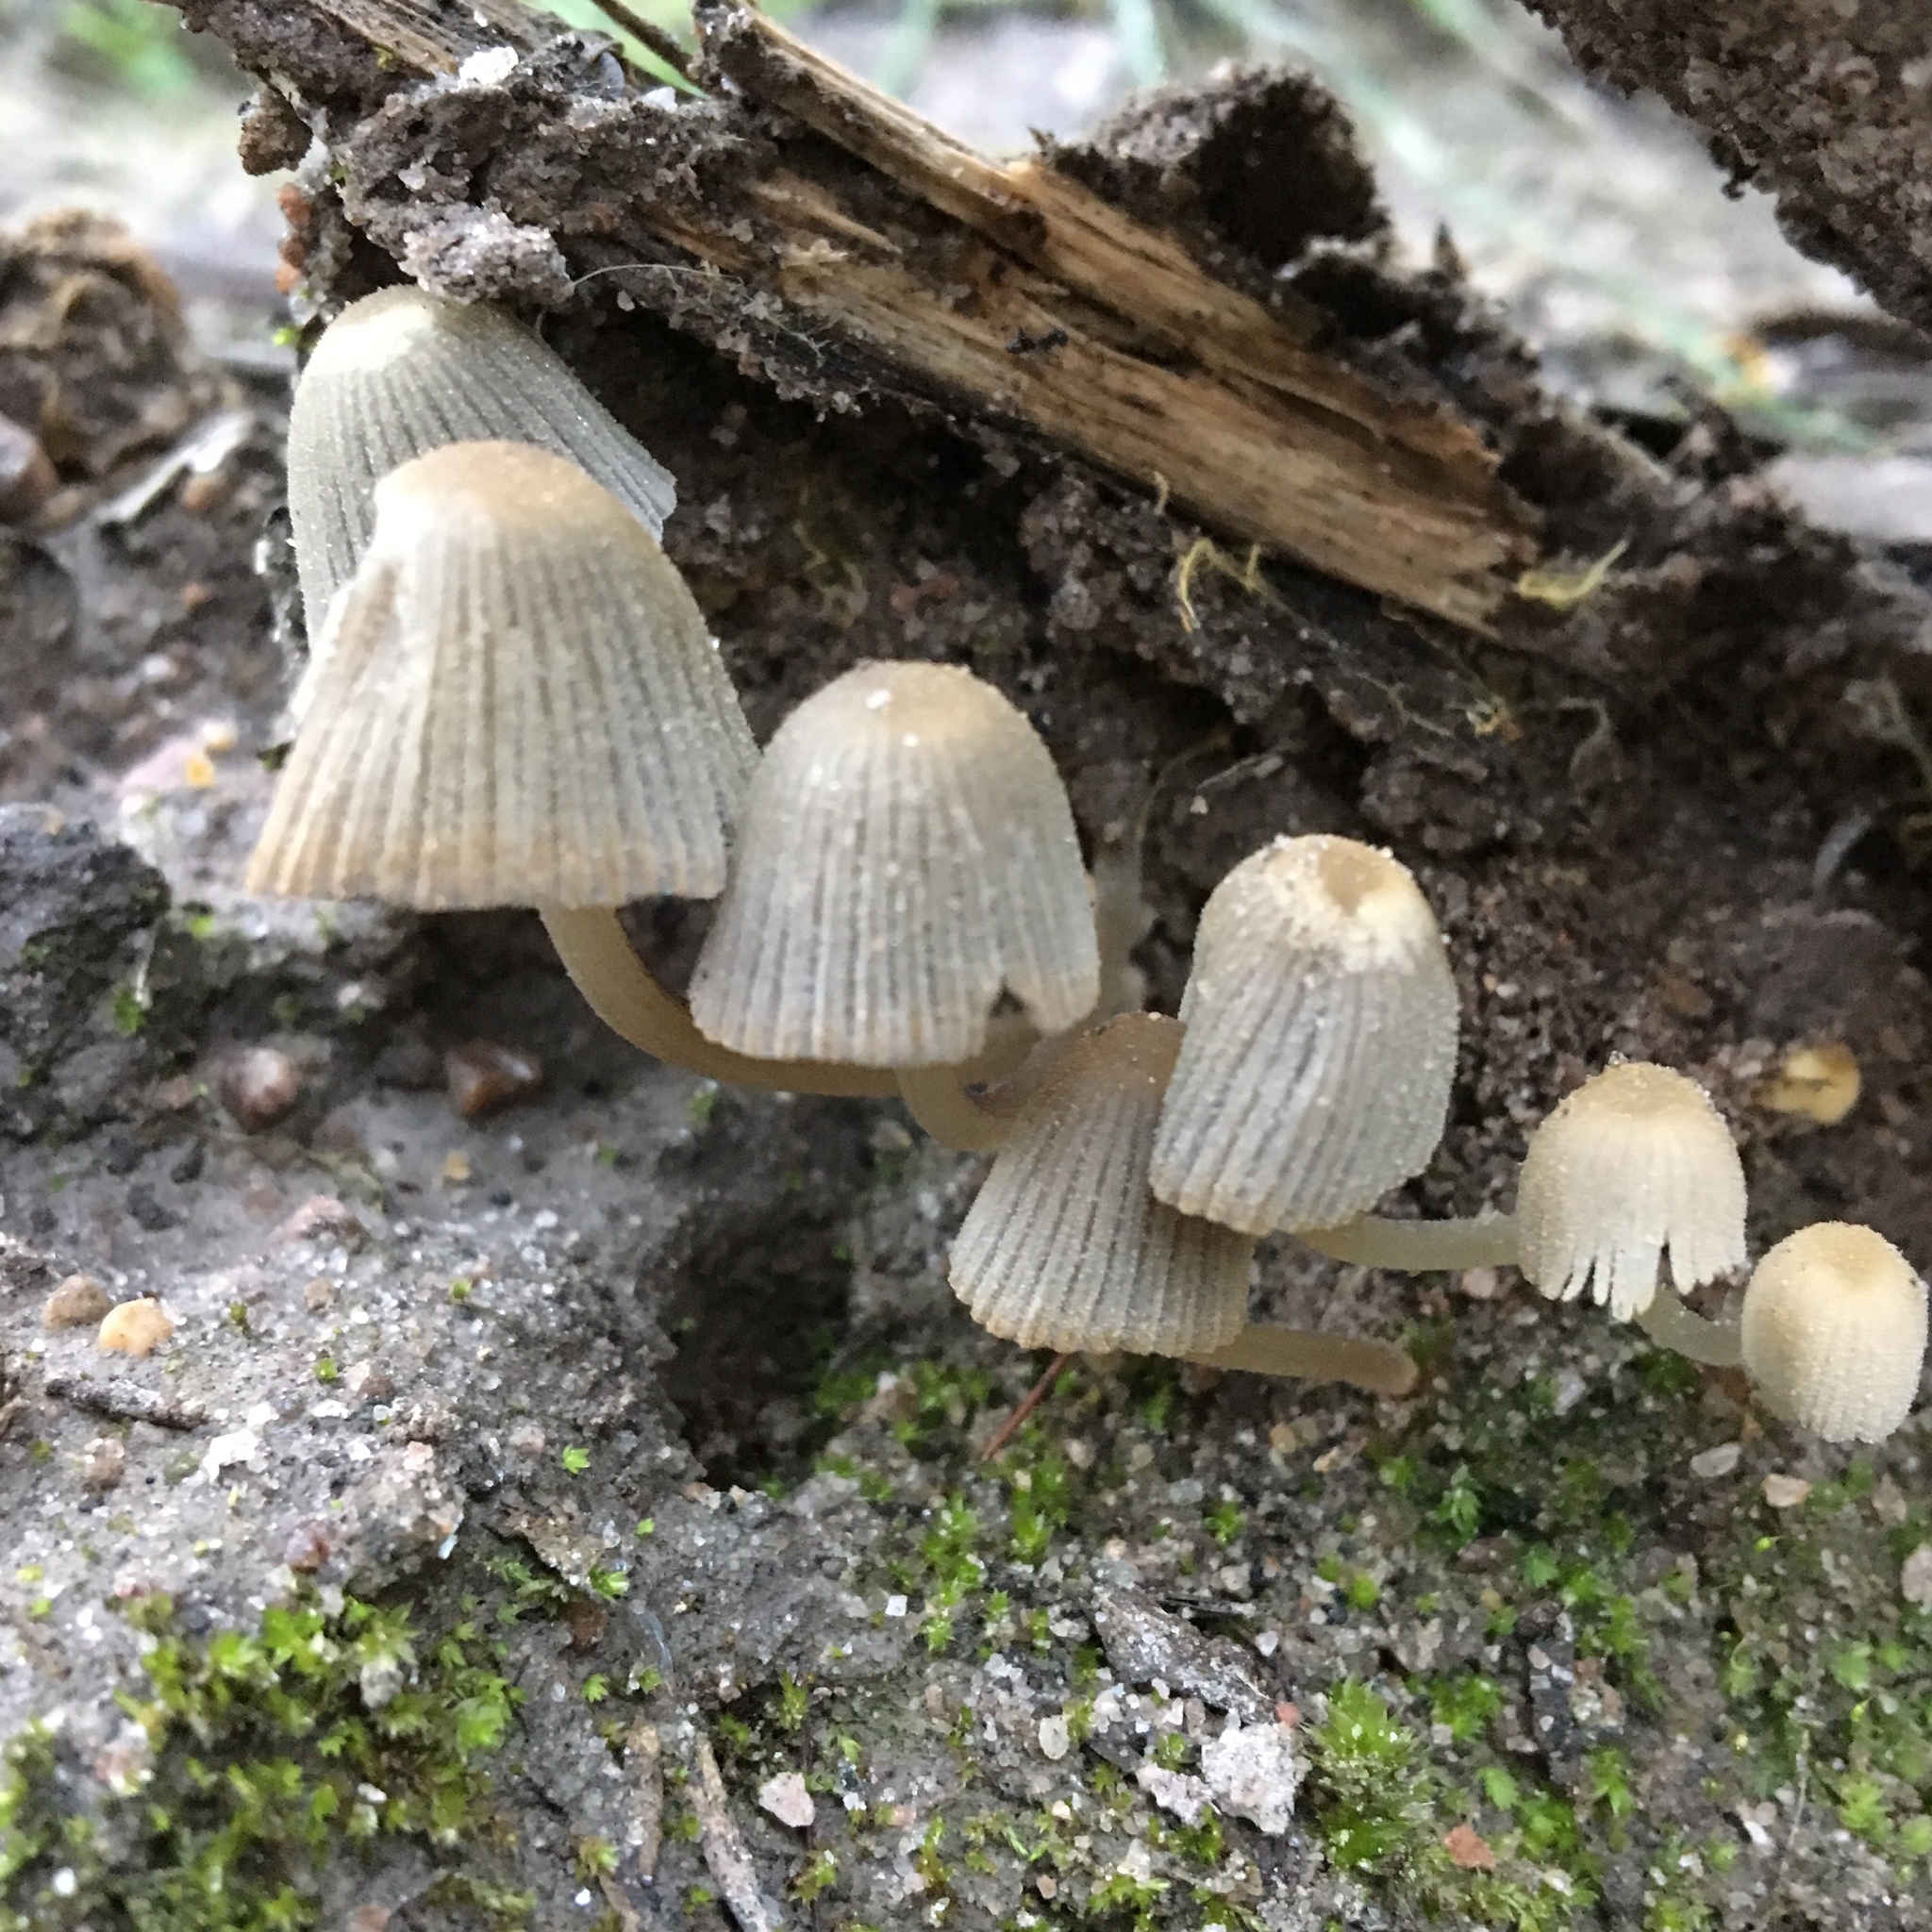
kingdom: Fungi
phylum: Basidiomycota
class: Agaricomycetes
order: Agaricales
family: Psathyrellaceae
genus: Coprinellus
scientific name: Coprinellus disseminatus
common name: Fairies' bonnets
